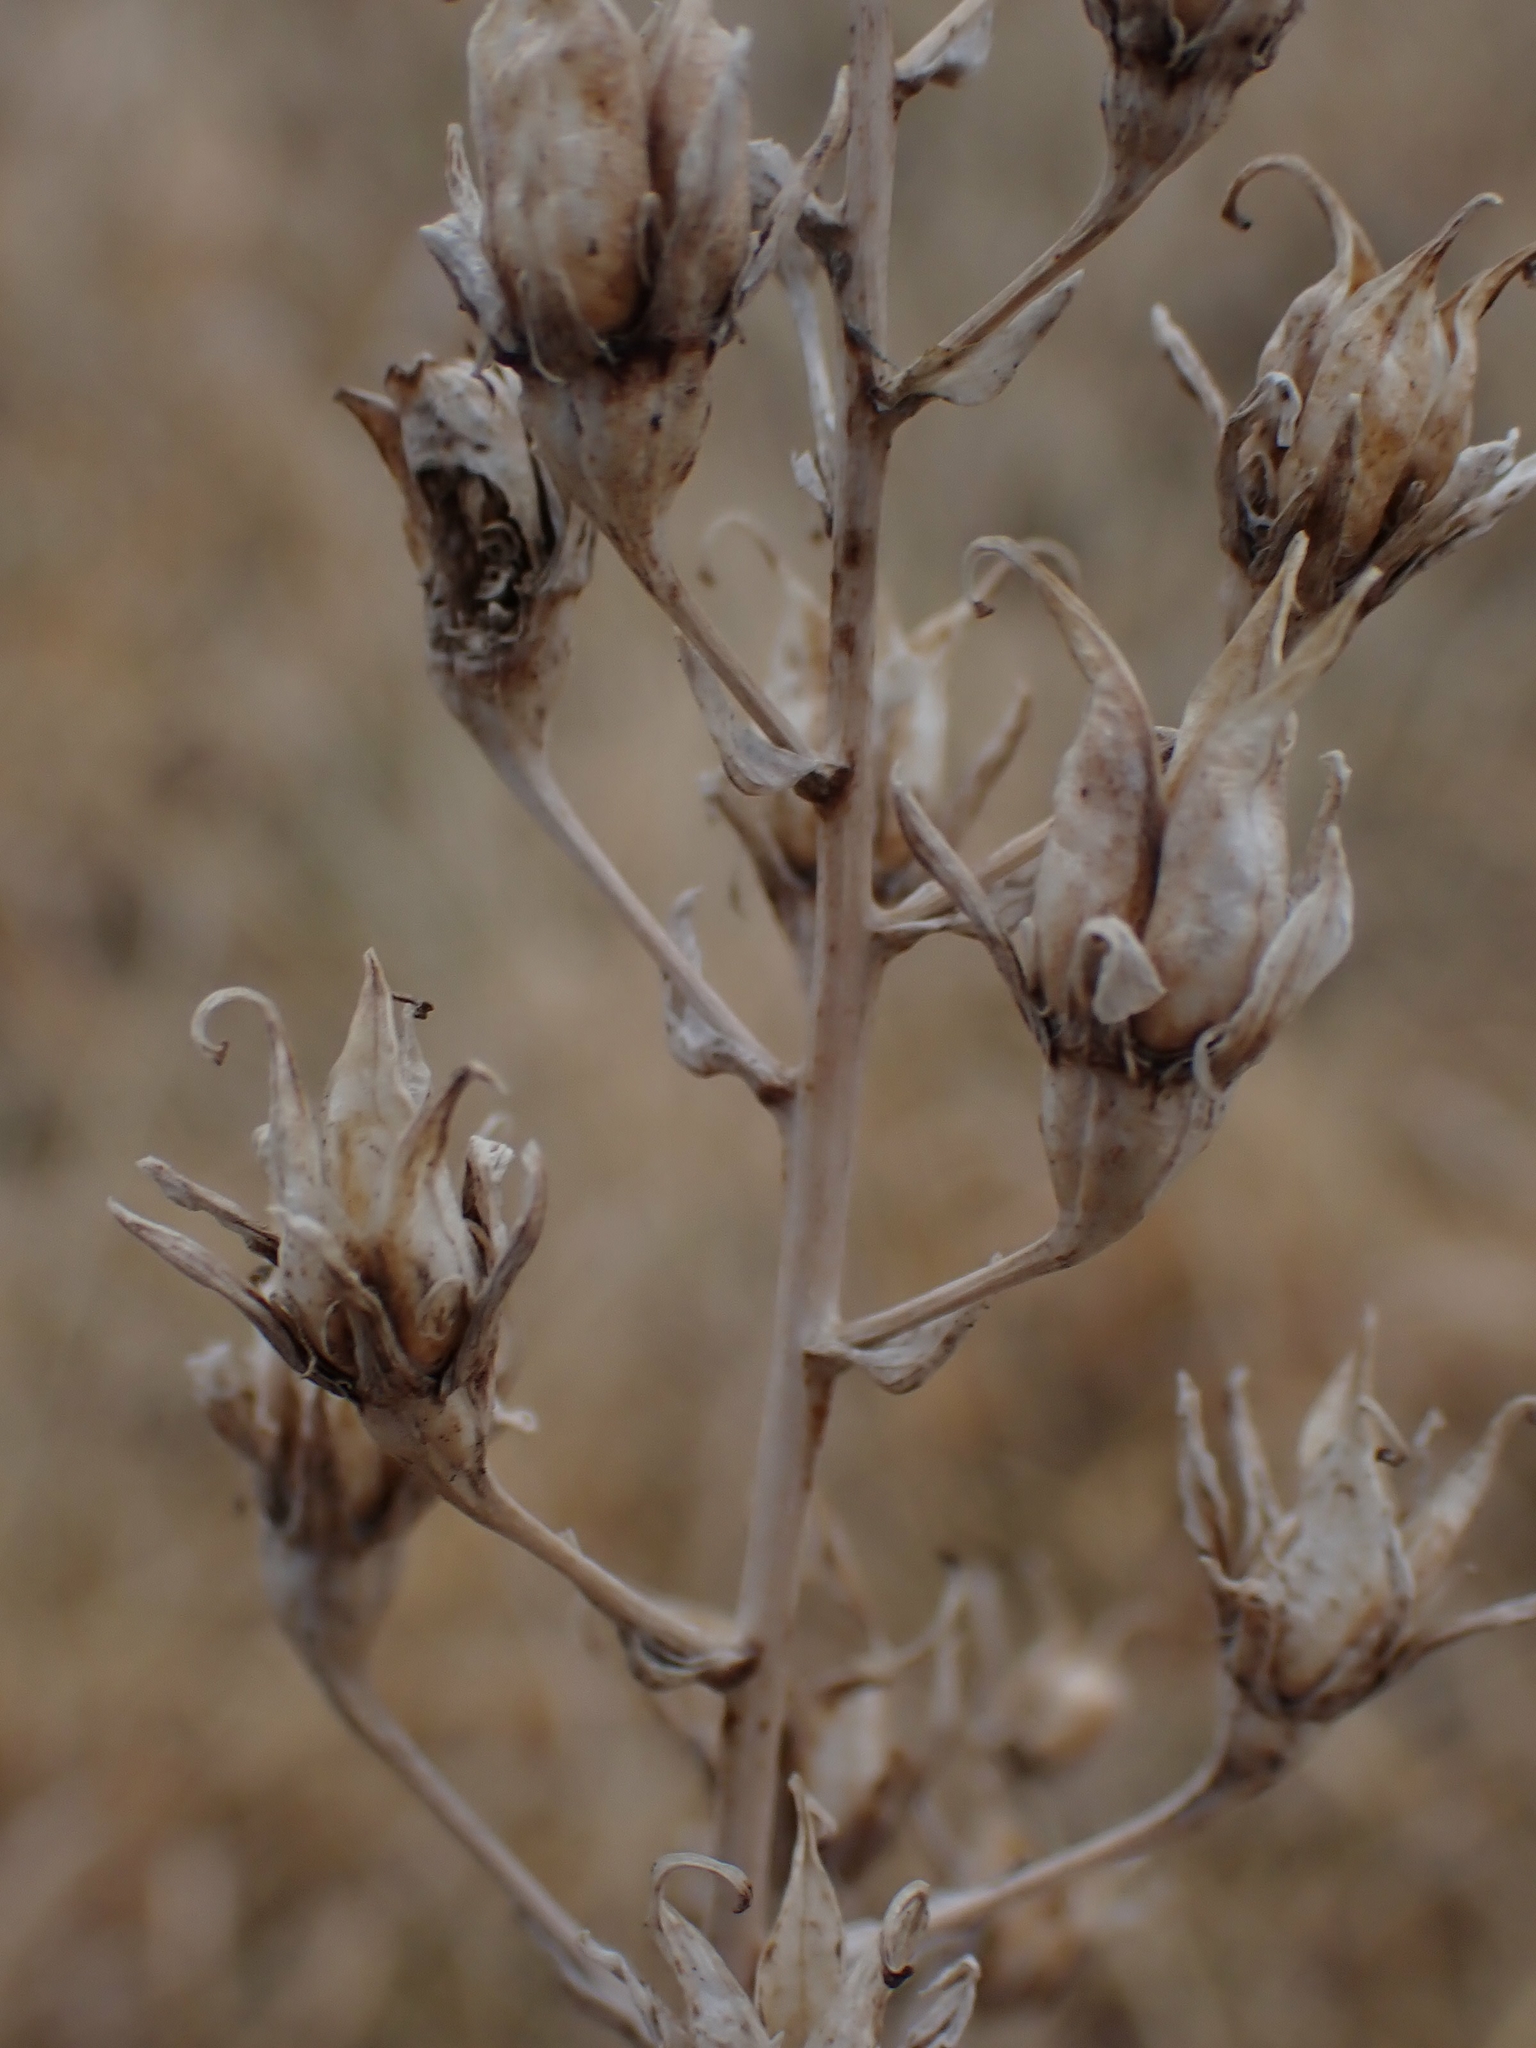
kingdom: Plantae
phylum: Tracheophyta
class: Liliopsida
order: Liliales
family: Melanthiaceae
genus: Anticlea
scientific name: Anticlea elegans
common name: Mountain death camas
